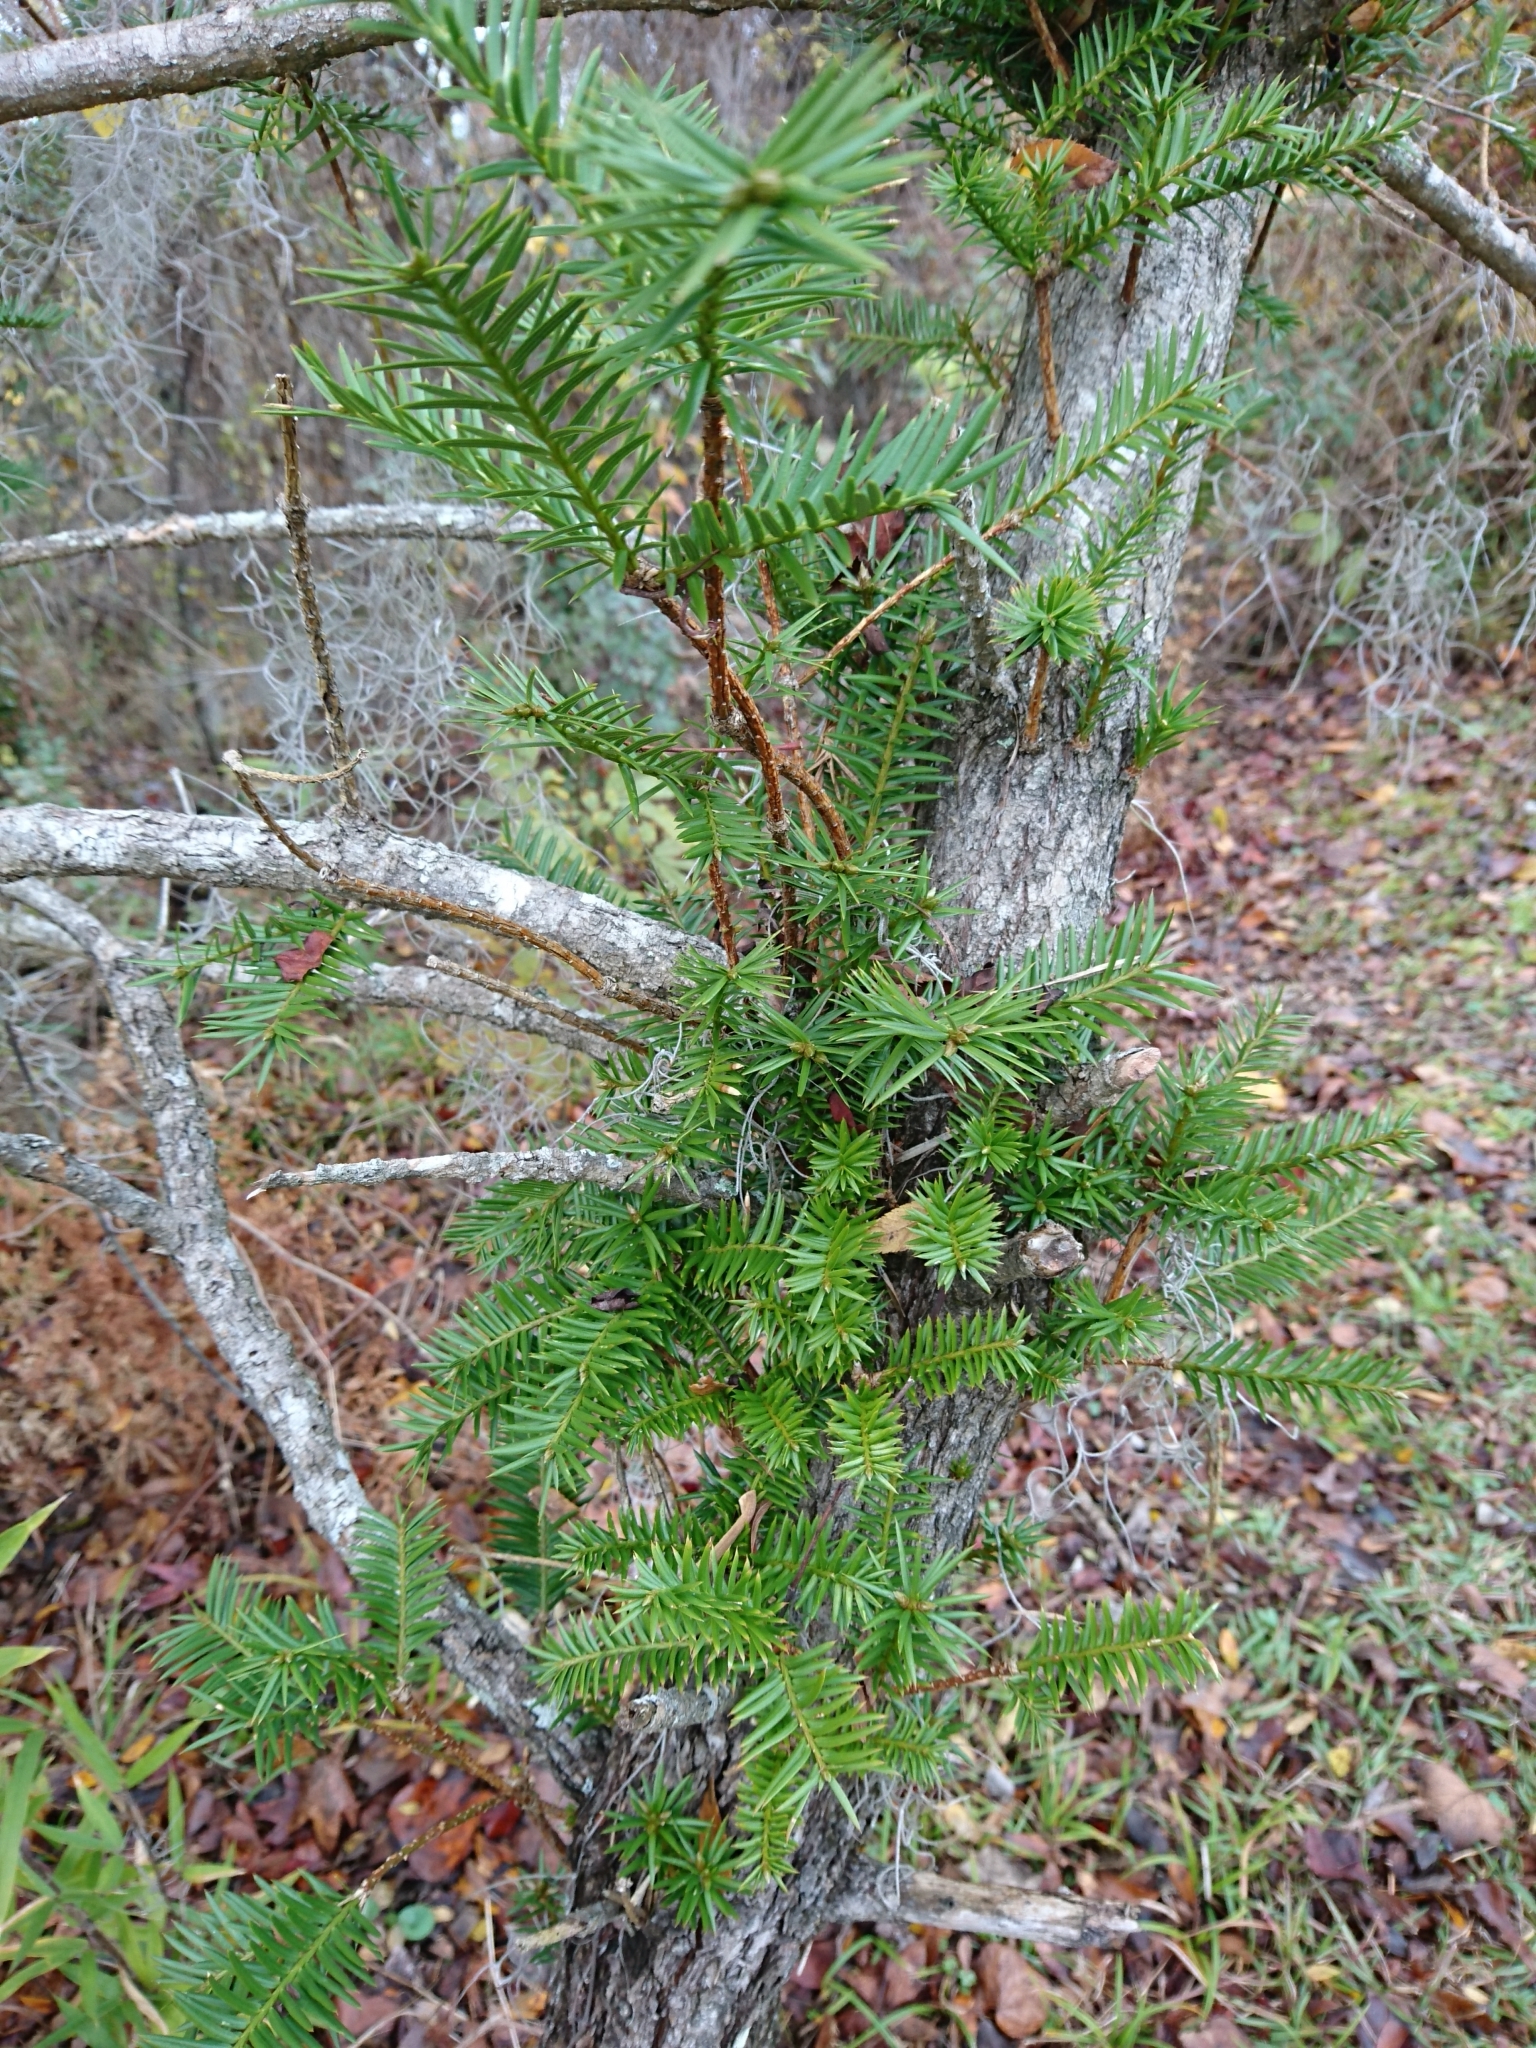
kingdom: Plantae
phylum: Tracheophyta
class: Pinopsida
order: Pinales
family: Taxaceae
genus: Torreya
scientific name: Torreya taxifolia
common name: Florida torreya
